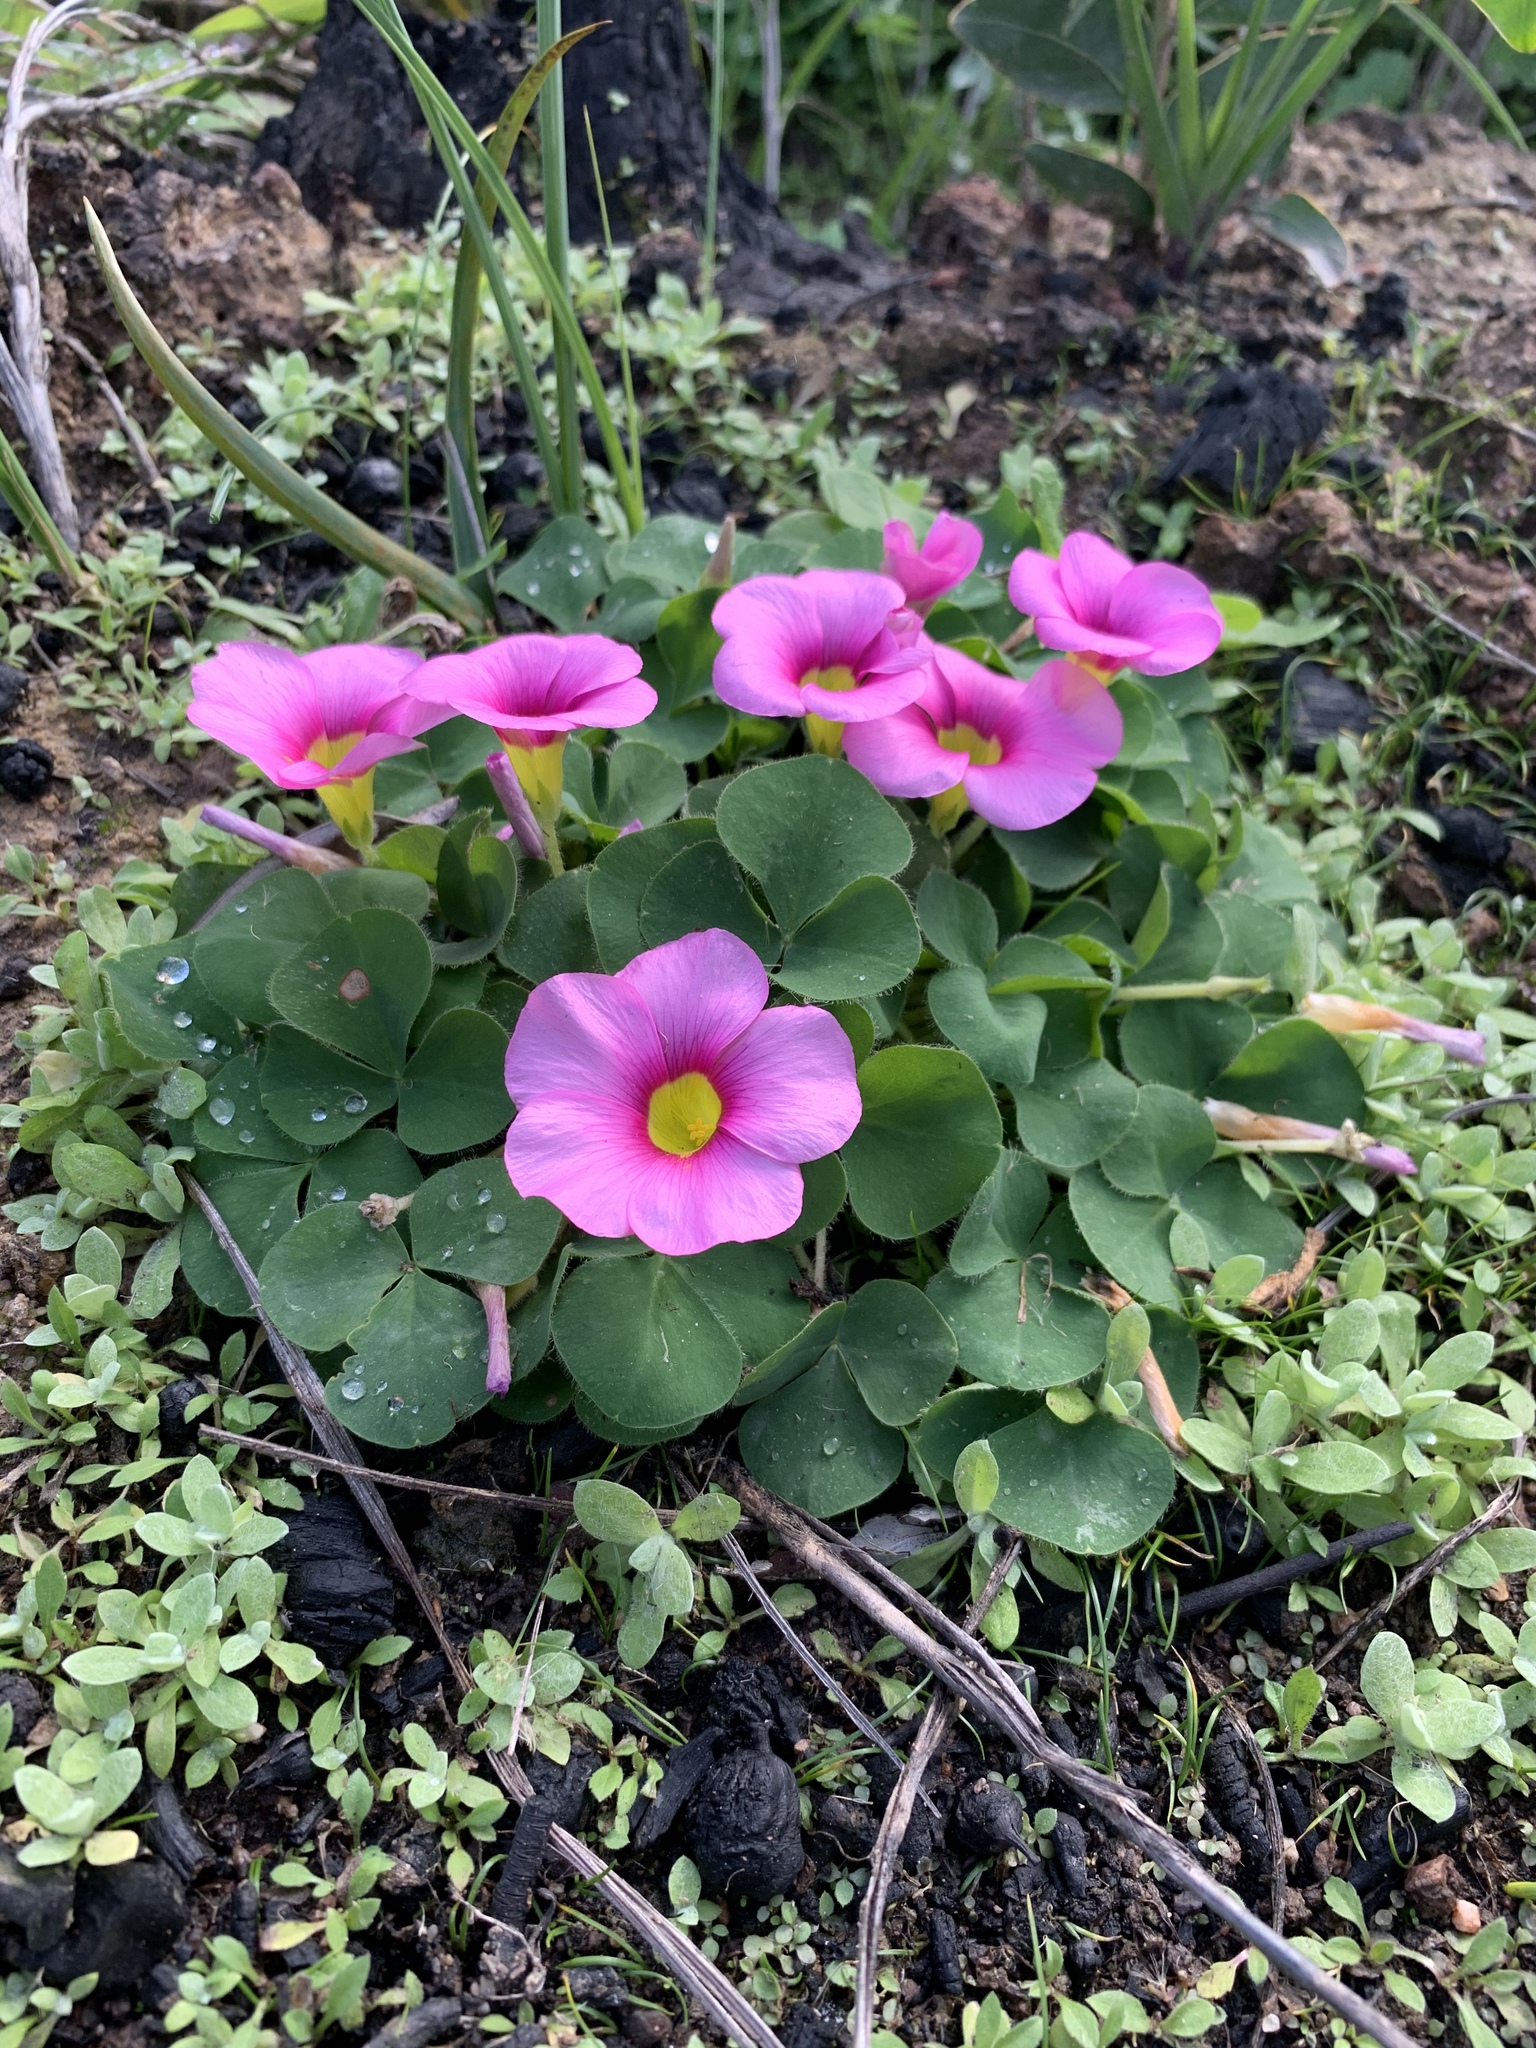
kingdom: Plantae
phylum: Tracheophyta
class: Magnoliopsida
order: Oxalidales
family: Oxalidaceae
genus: Oxalis
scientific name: Oxalis purpurea
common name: Purple woodsorrel
